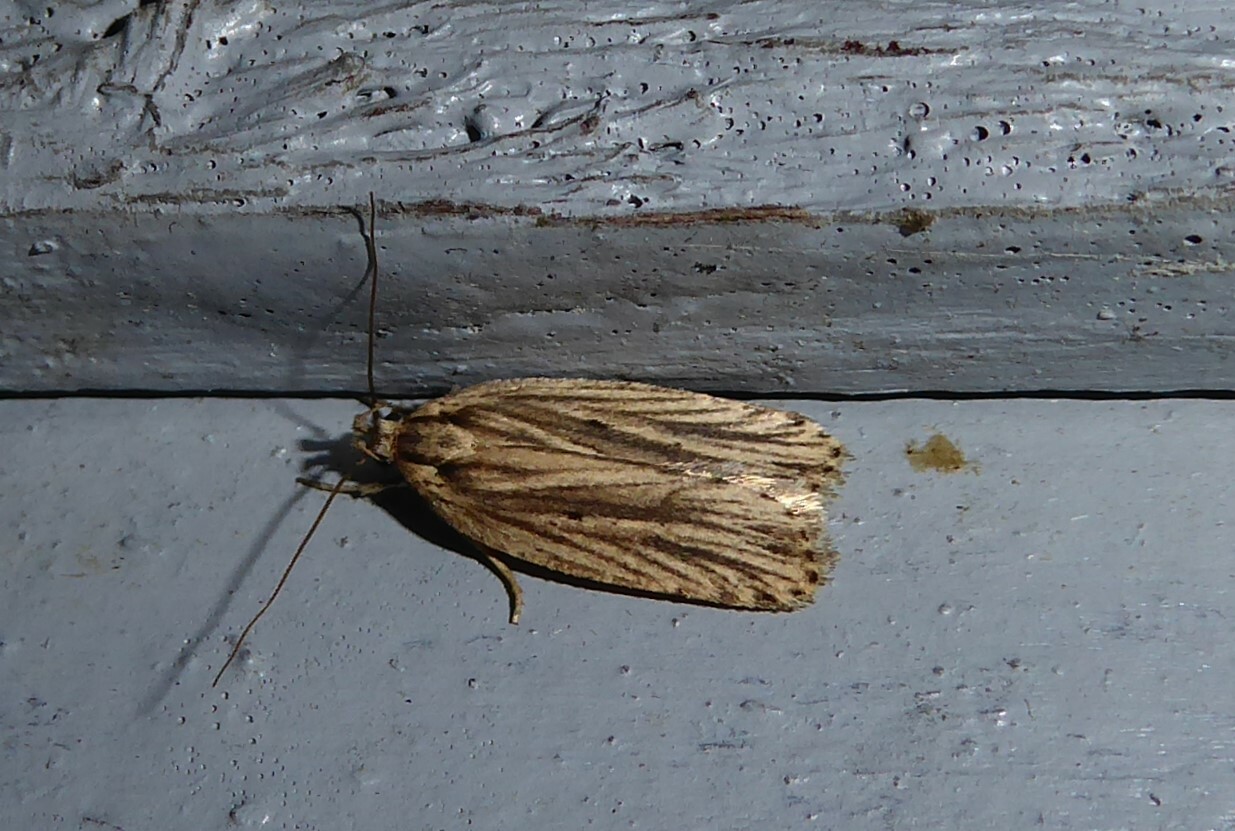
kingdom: Animalia
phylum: Arthropoda
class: Insecta
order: Lepidoptera
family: Depressariidae
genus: Agonopterix
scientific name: Agonopterix
